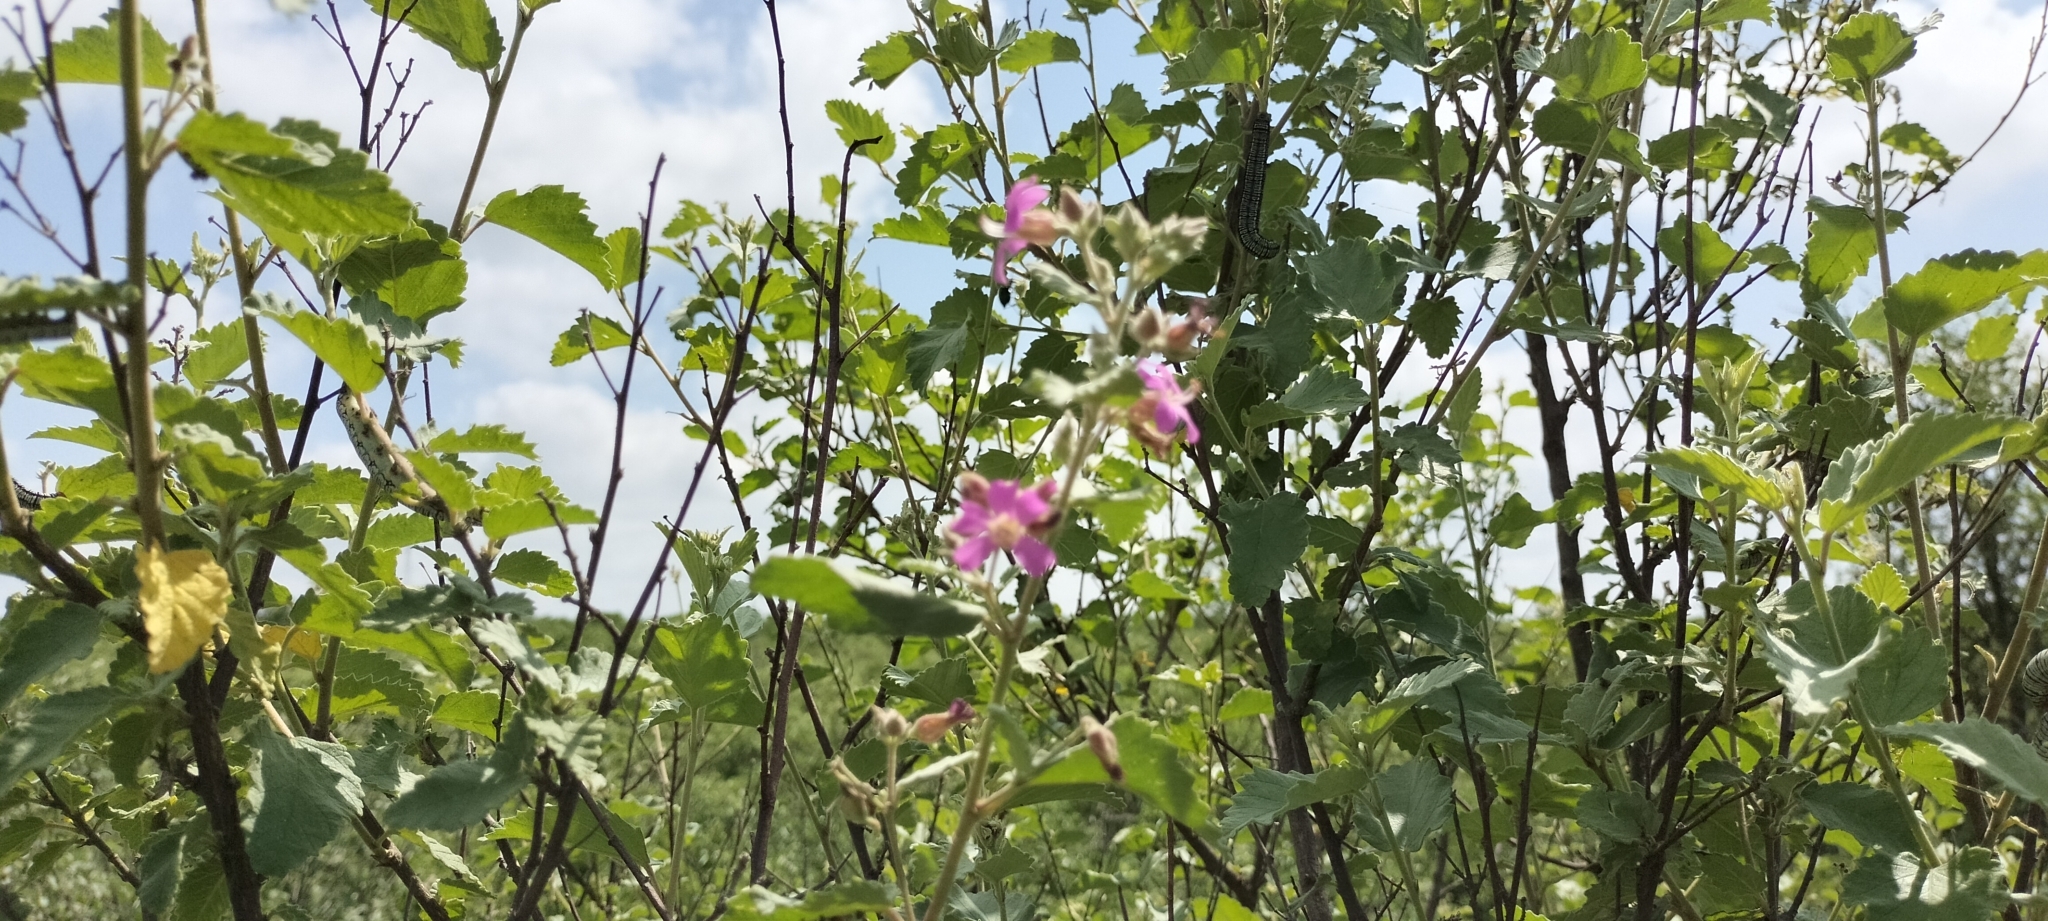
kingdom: Plantae
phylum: Tracheophyta
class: Magnoliopsida
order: Malvales
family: Malvaceae
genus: Melochia
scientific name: Melochia tomentosa
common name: Black torch
